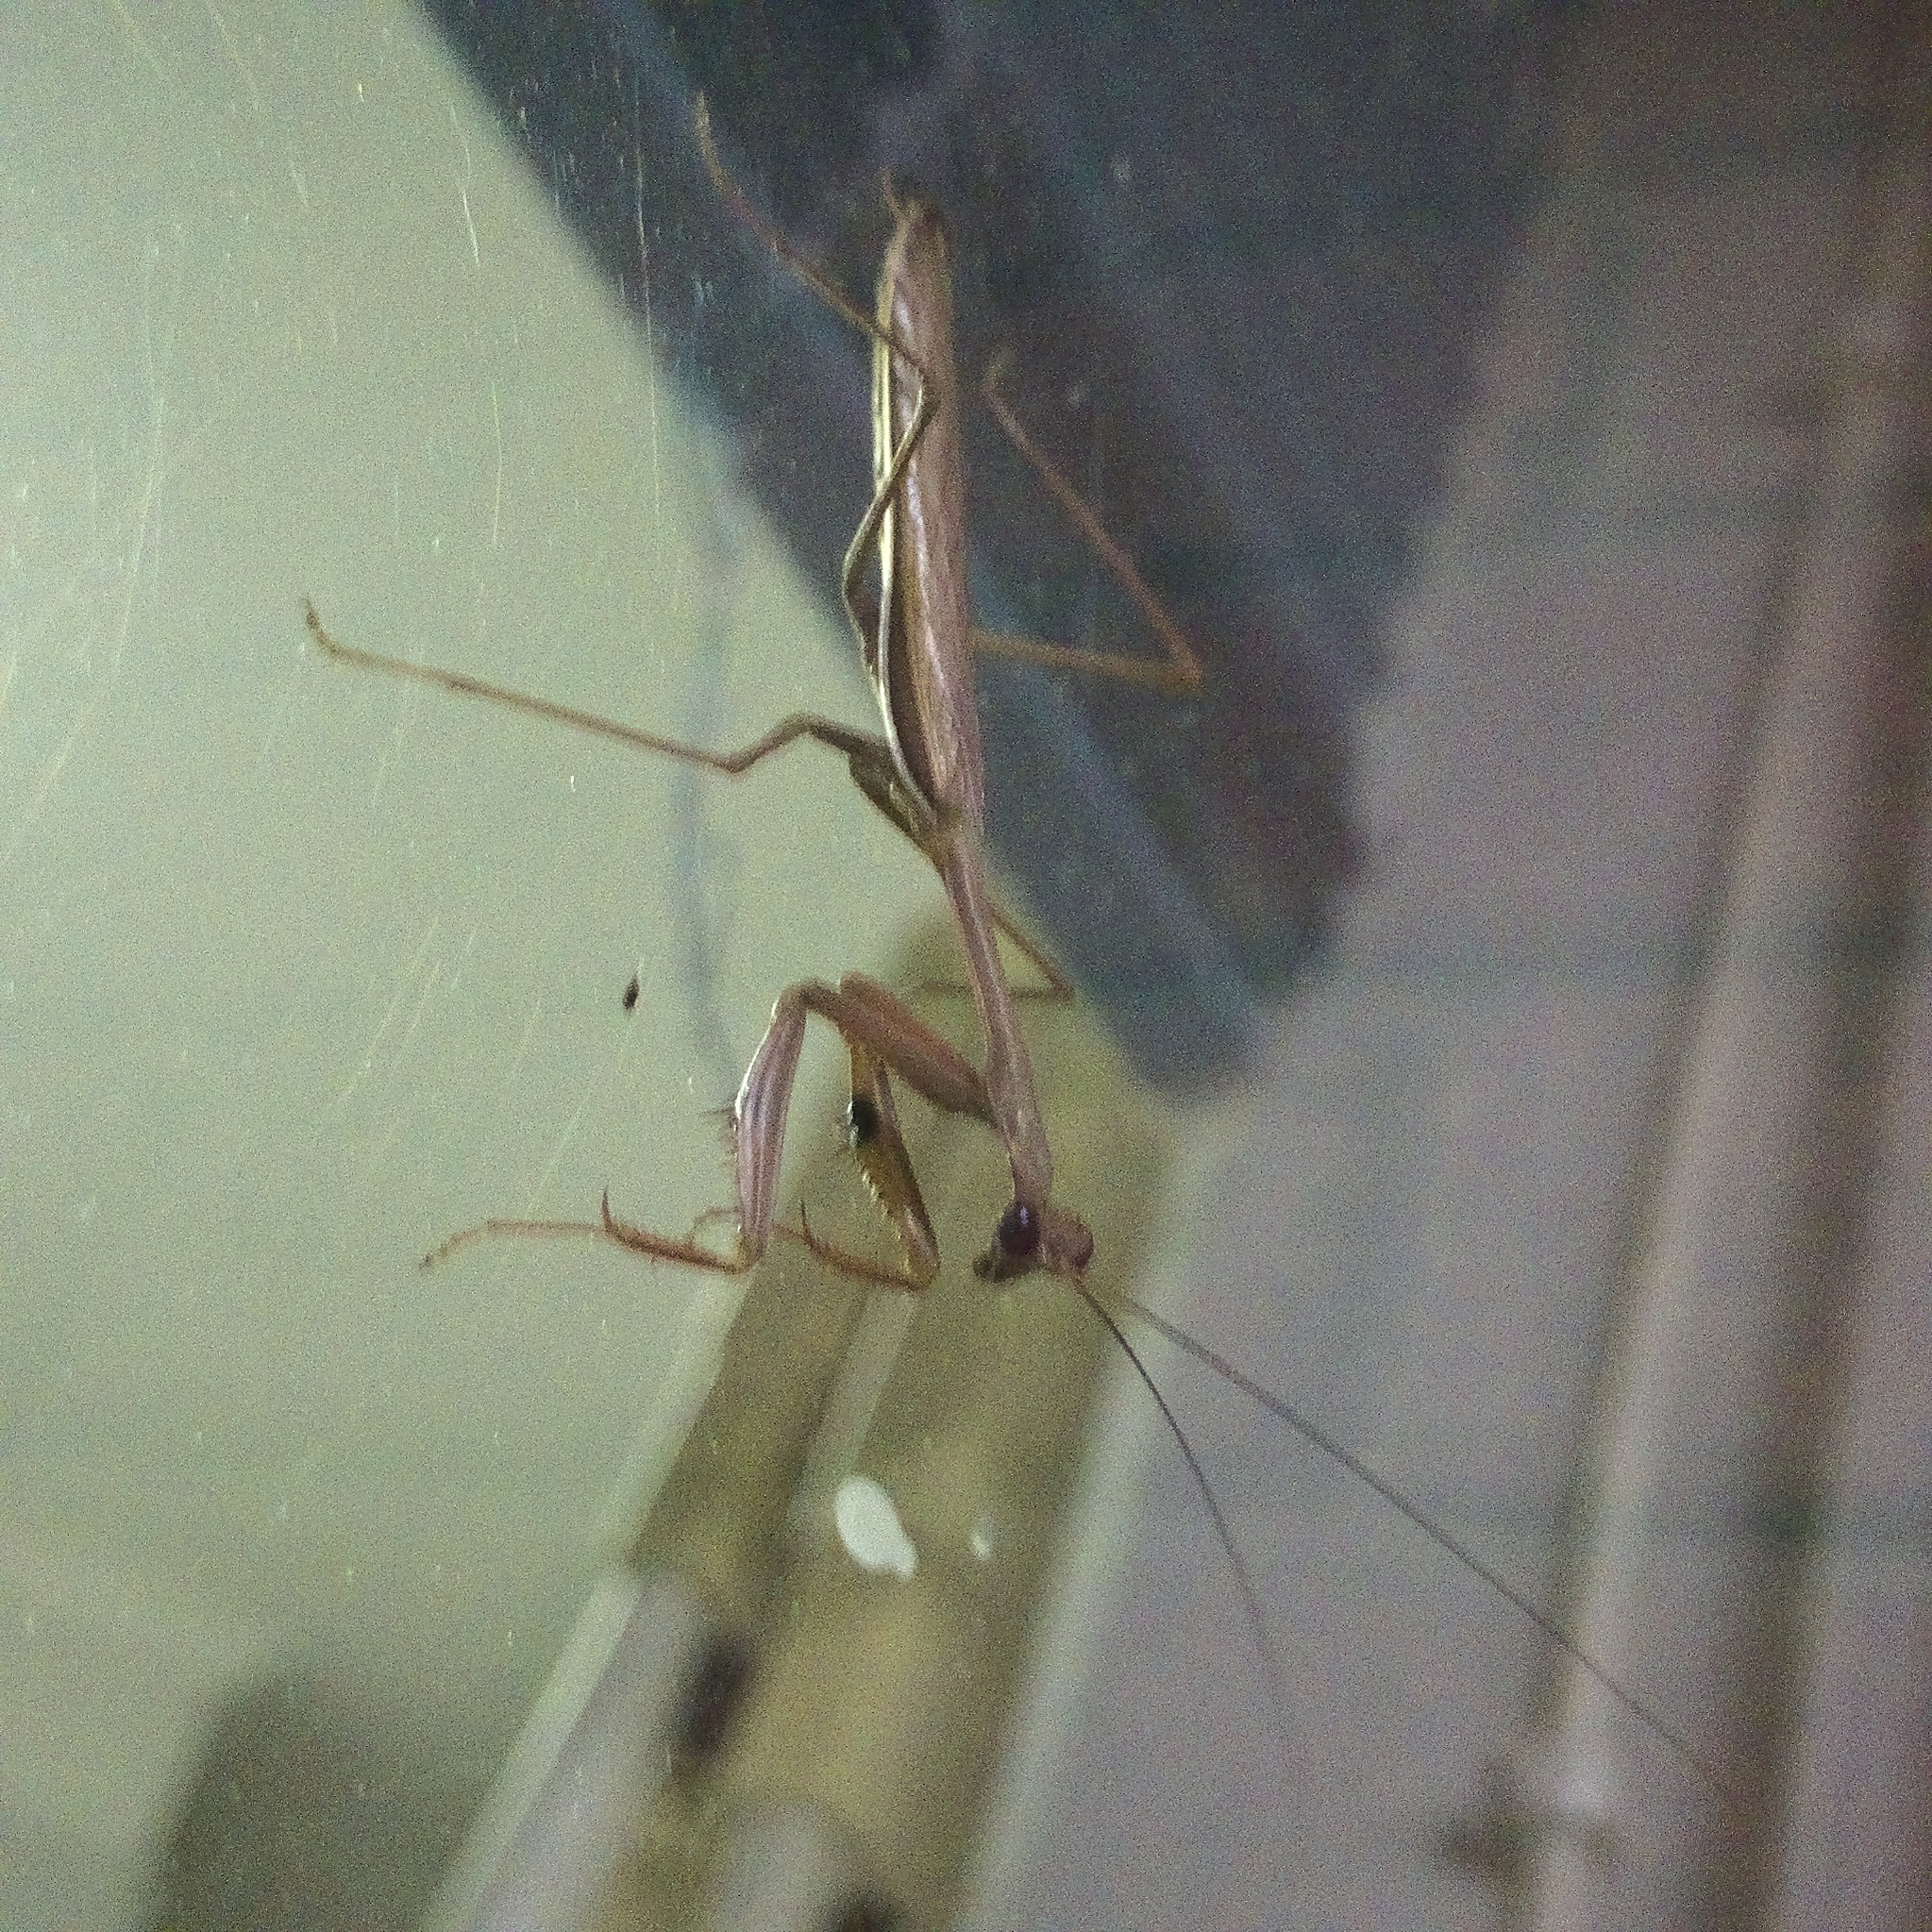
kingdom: Animalia
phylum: Arthropoda
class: Insecta
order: Mantodea
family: Mantidae
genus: Pseudomantis
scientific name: Pseudomantis albofimbriata
